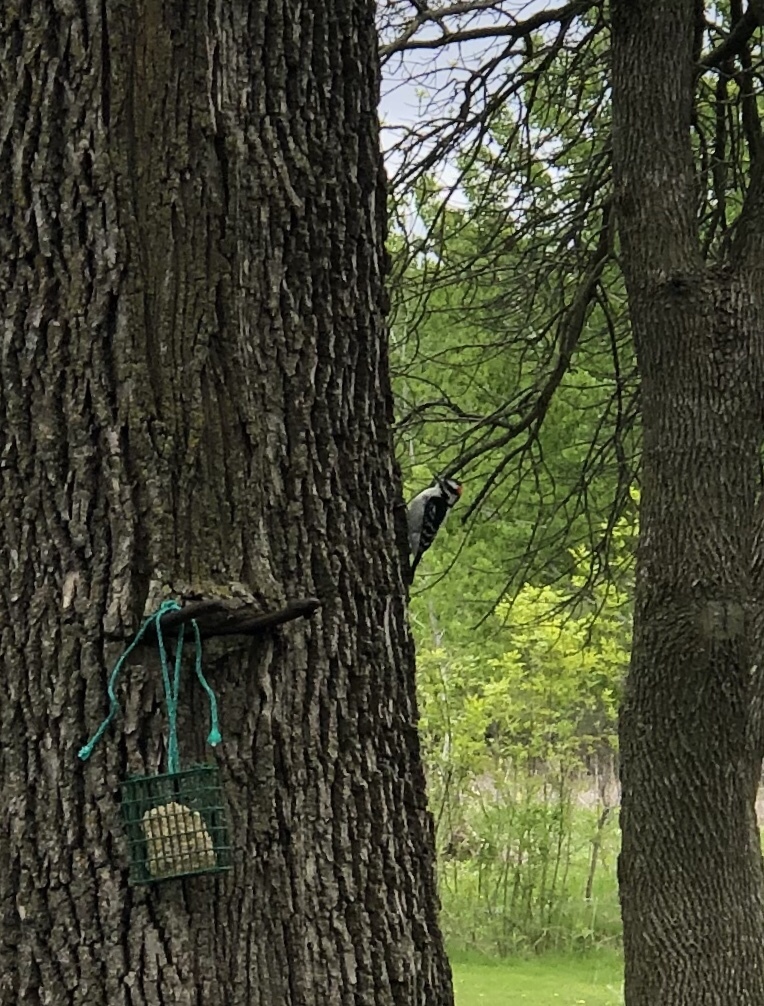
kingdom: Animalia
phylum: Chordata
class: Aves
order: Piciformes
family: Picidae
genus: Dryobates
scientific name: Dryobates pubescens
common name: Downy woodpecker
